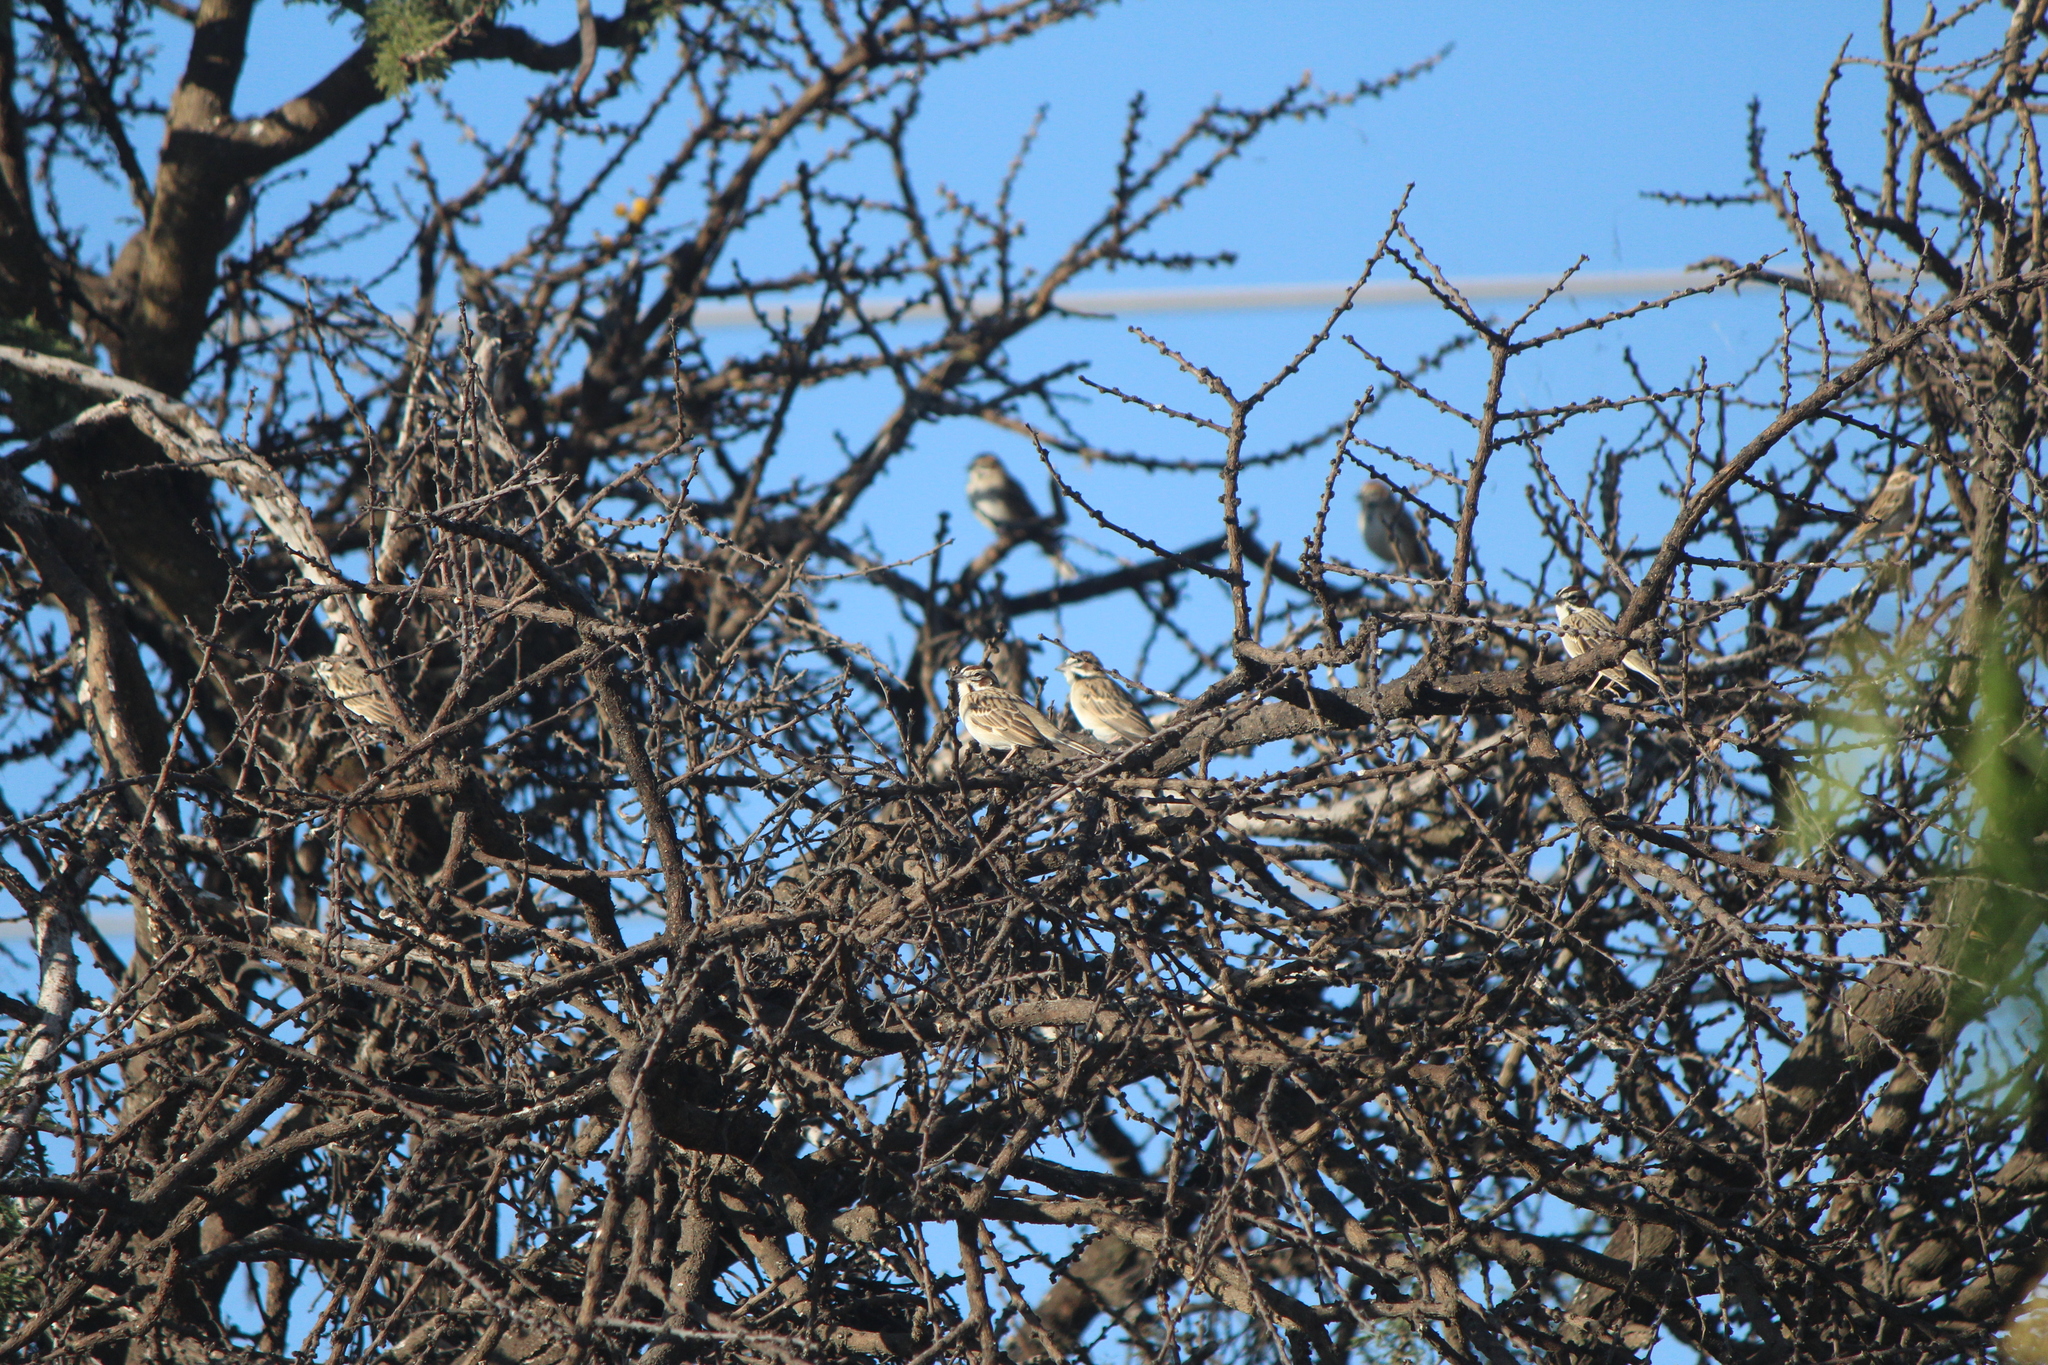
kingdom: Animalia
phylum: Chordata
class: Aves
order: Passeriformes
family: Passerellidae
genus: Chondestes
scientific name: Chondestes grammacus
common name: Lark sparrow
